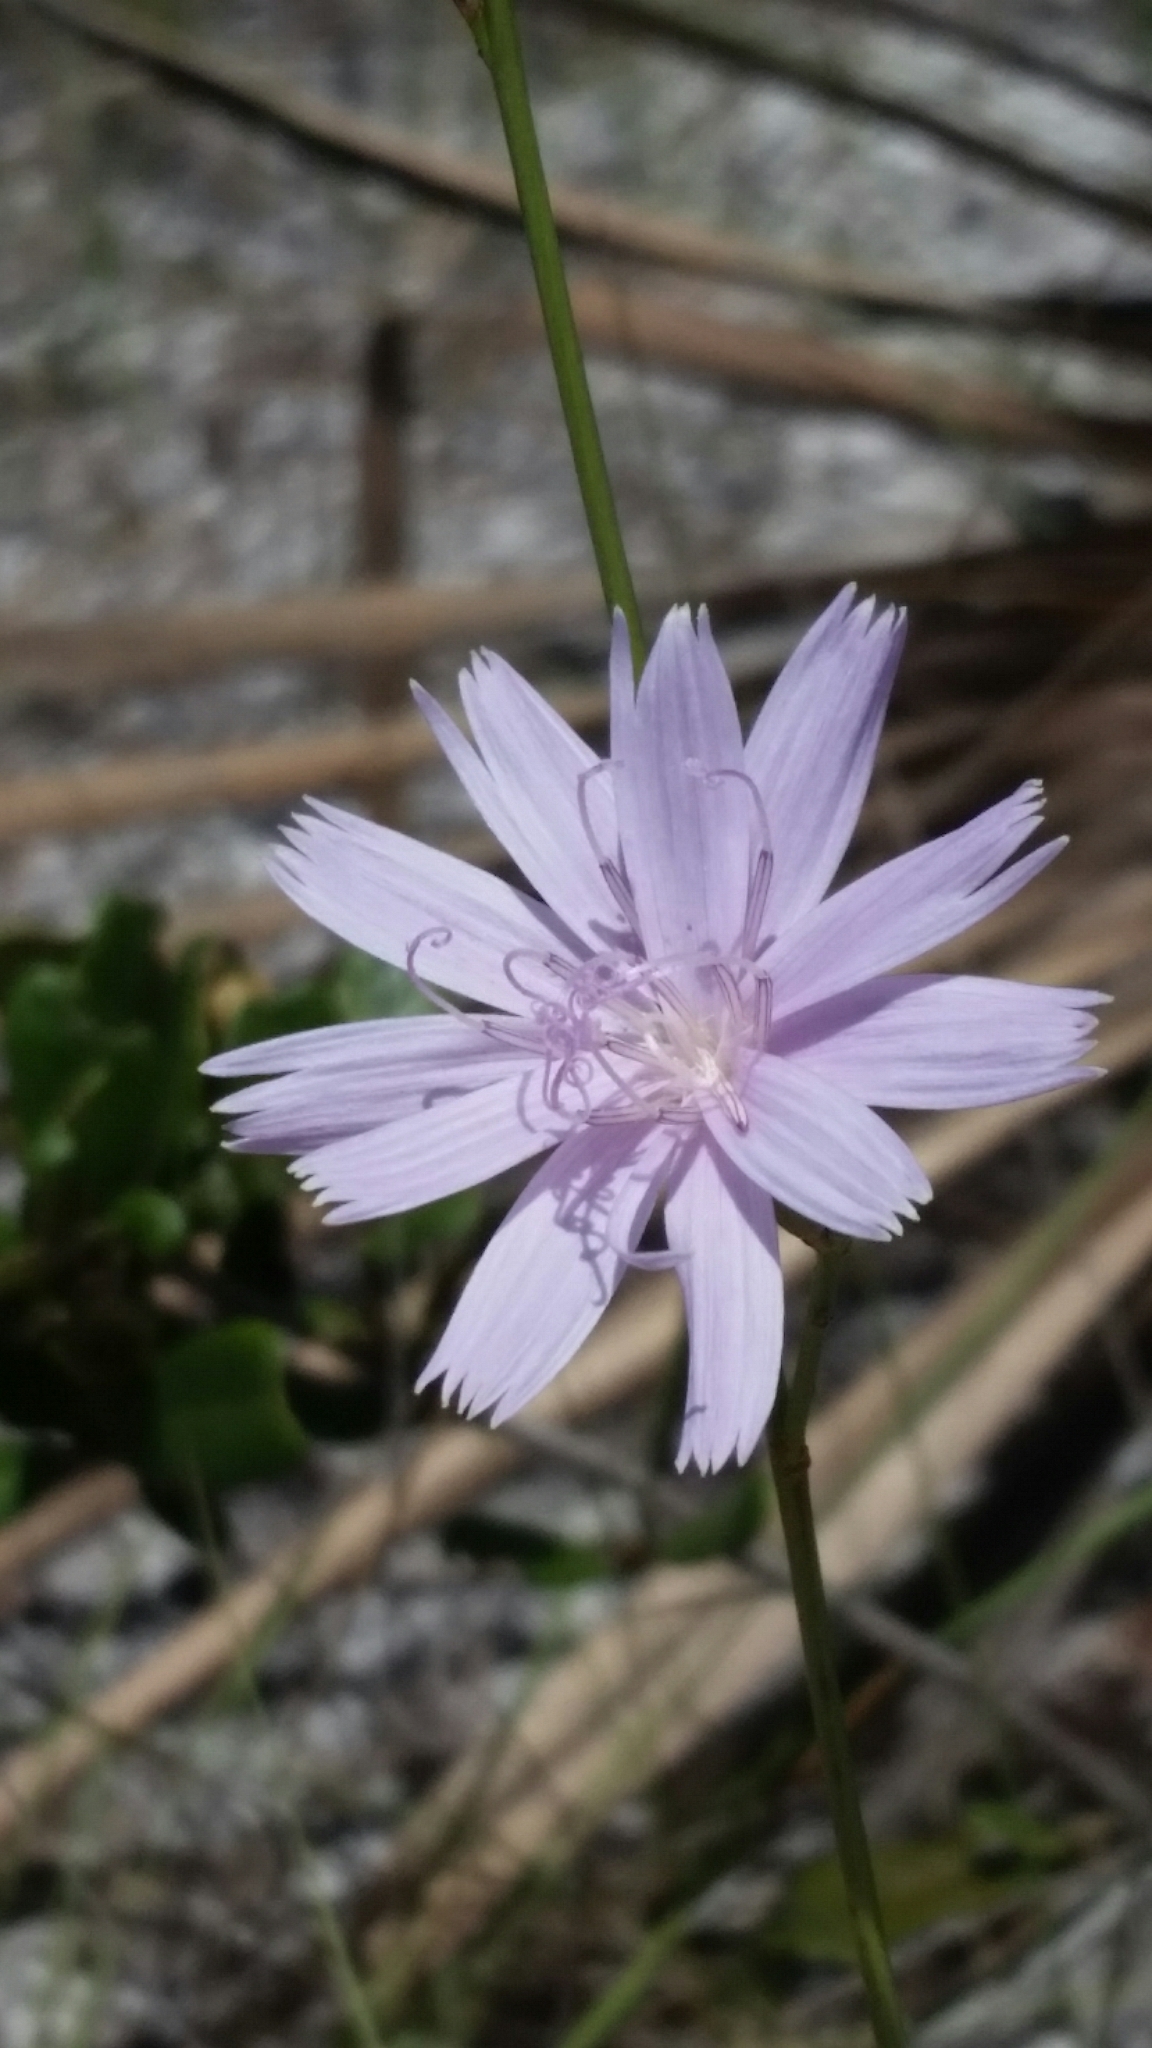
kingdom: Plantae
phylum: Tracheophyta
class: Magnoliopsida
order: Asterales
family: Asteraceae
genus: Lygodesmia
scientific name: Lygodesmia aphylla
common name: Rose-rush
